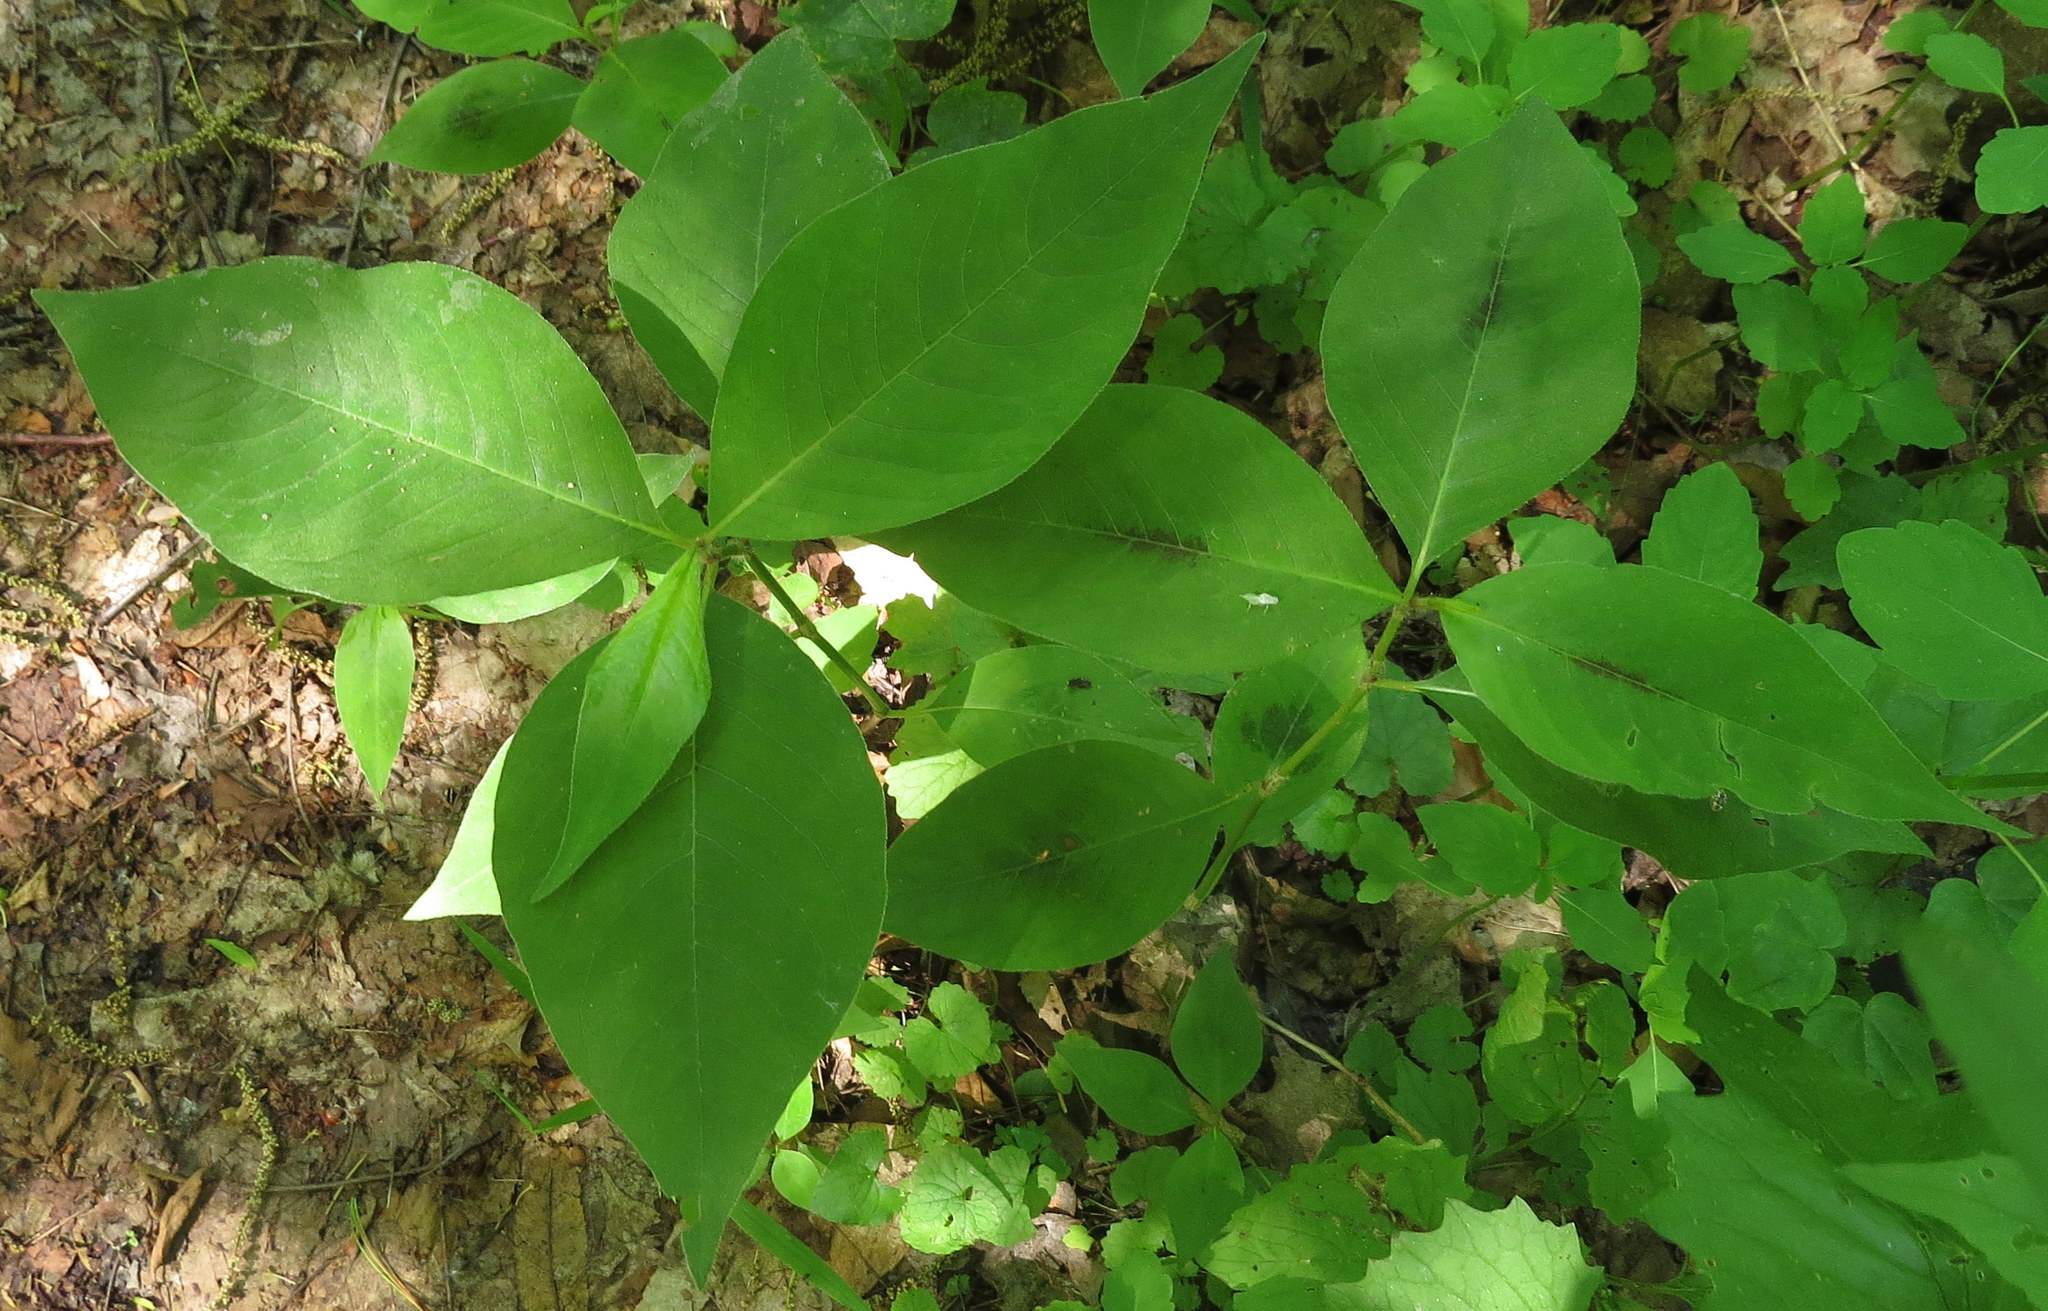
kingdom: Plantae
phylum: Tracheophyta
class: Magnoliopsida
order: Caryophyllales
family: Polygonaceae
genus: Persicaria
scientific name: Persicaria virginiana
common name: Jumpseed
